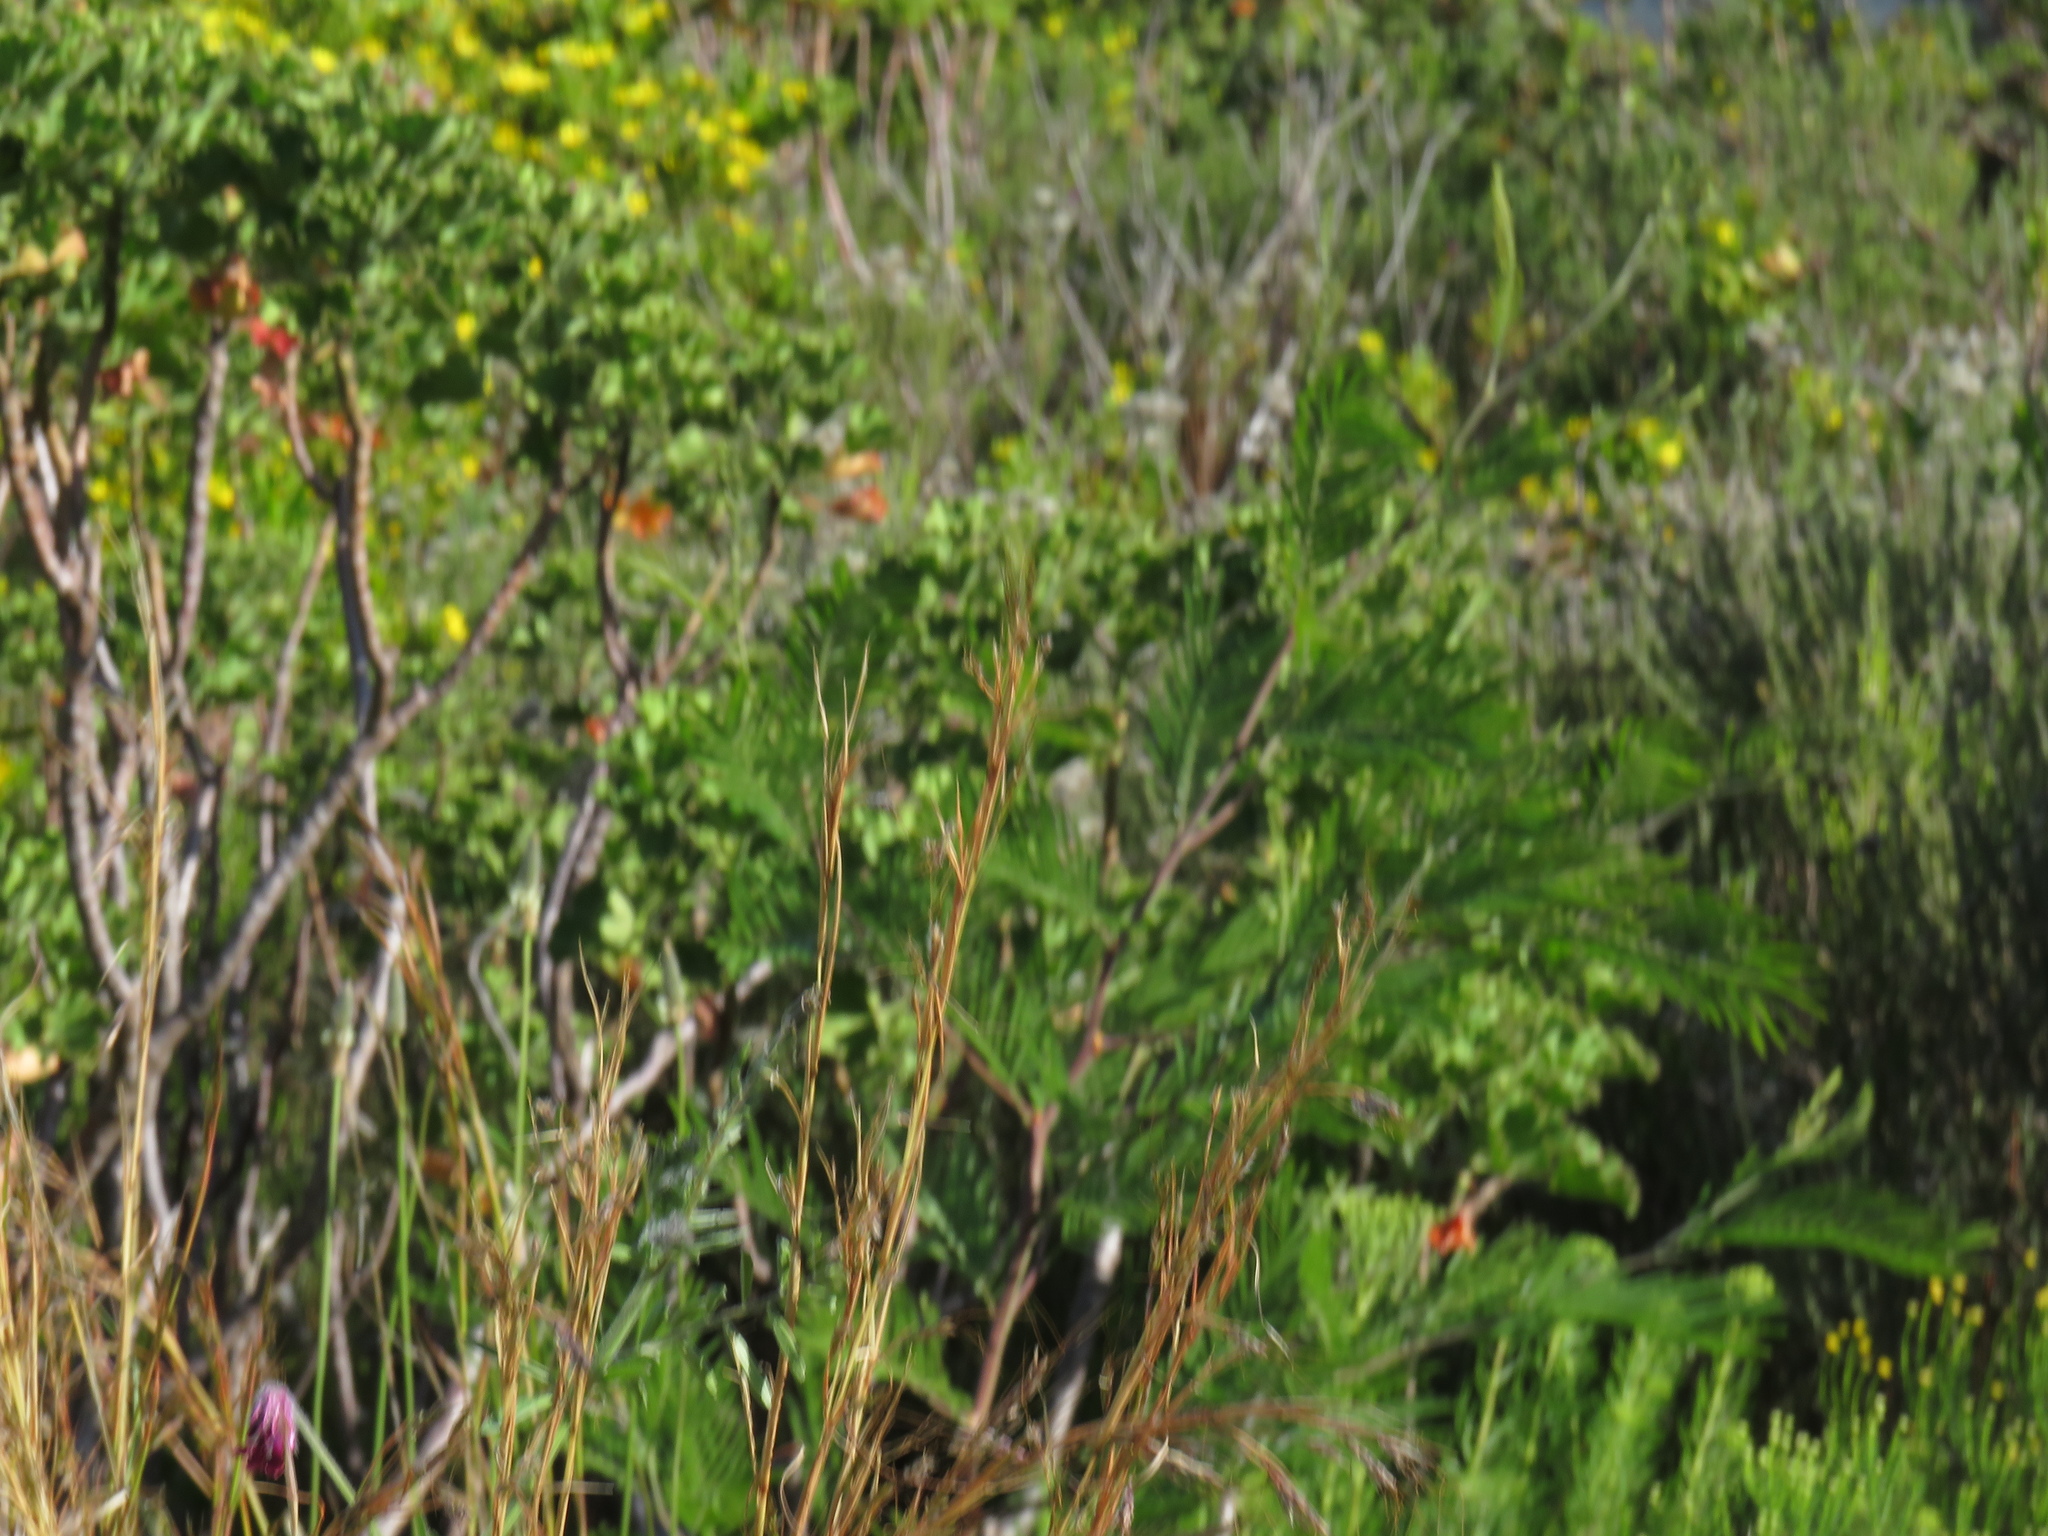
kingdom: Plantae
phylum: Tracheophyta
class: Magnoliopsida
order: Fabales
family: Fabaceae
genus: Acacia
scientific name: Acacia mearnsii
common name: Black wattle
